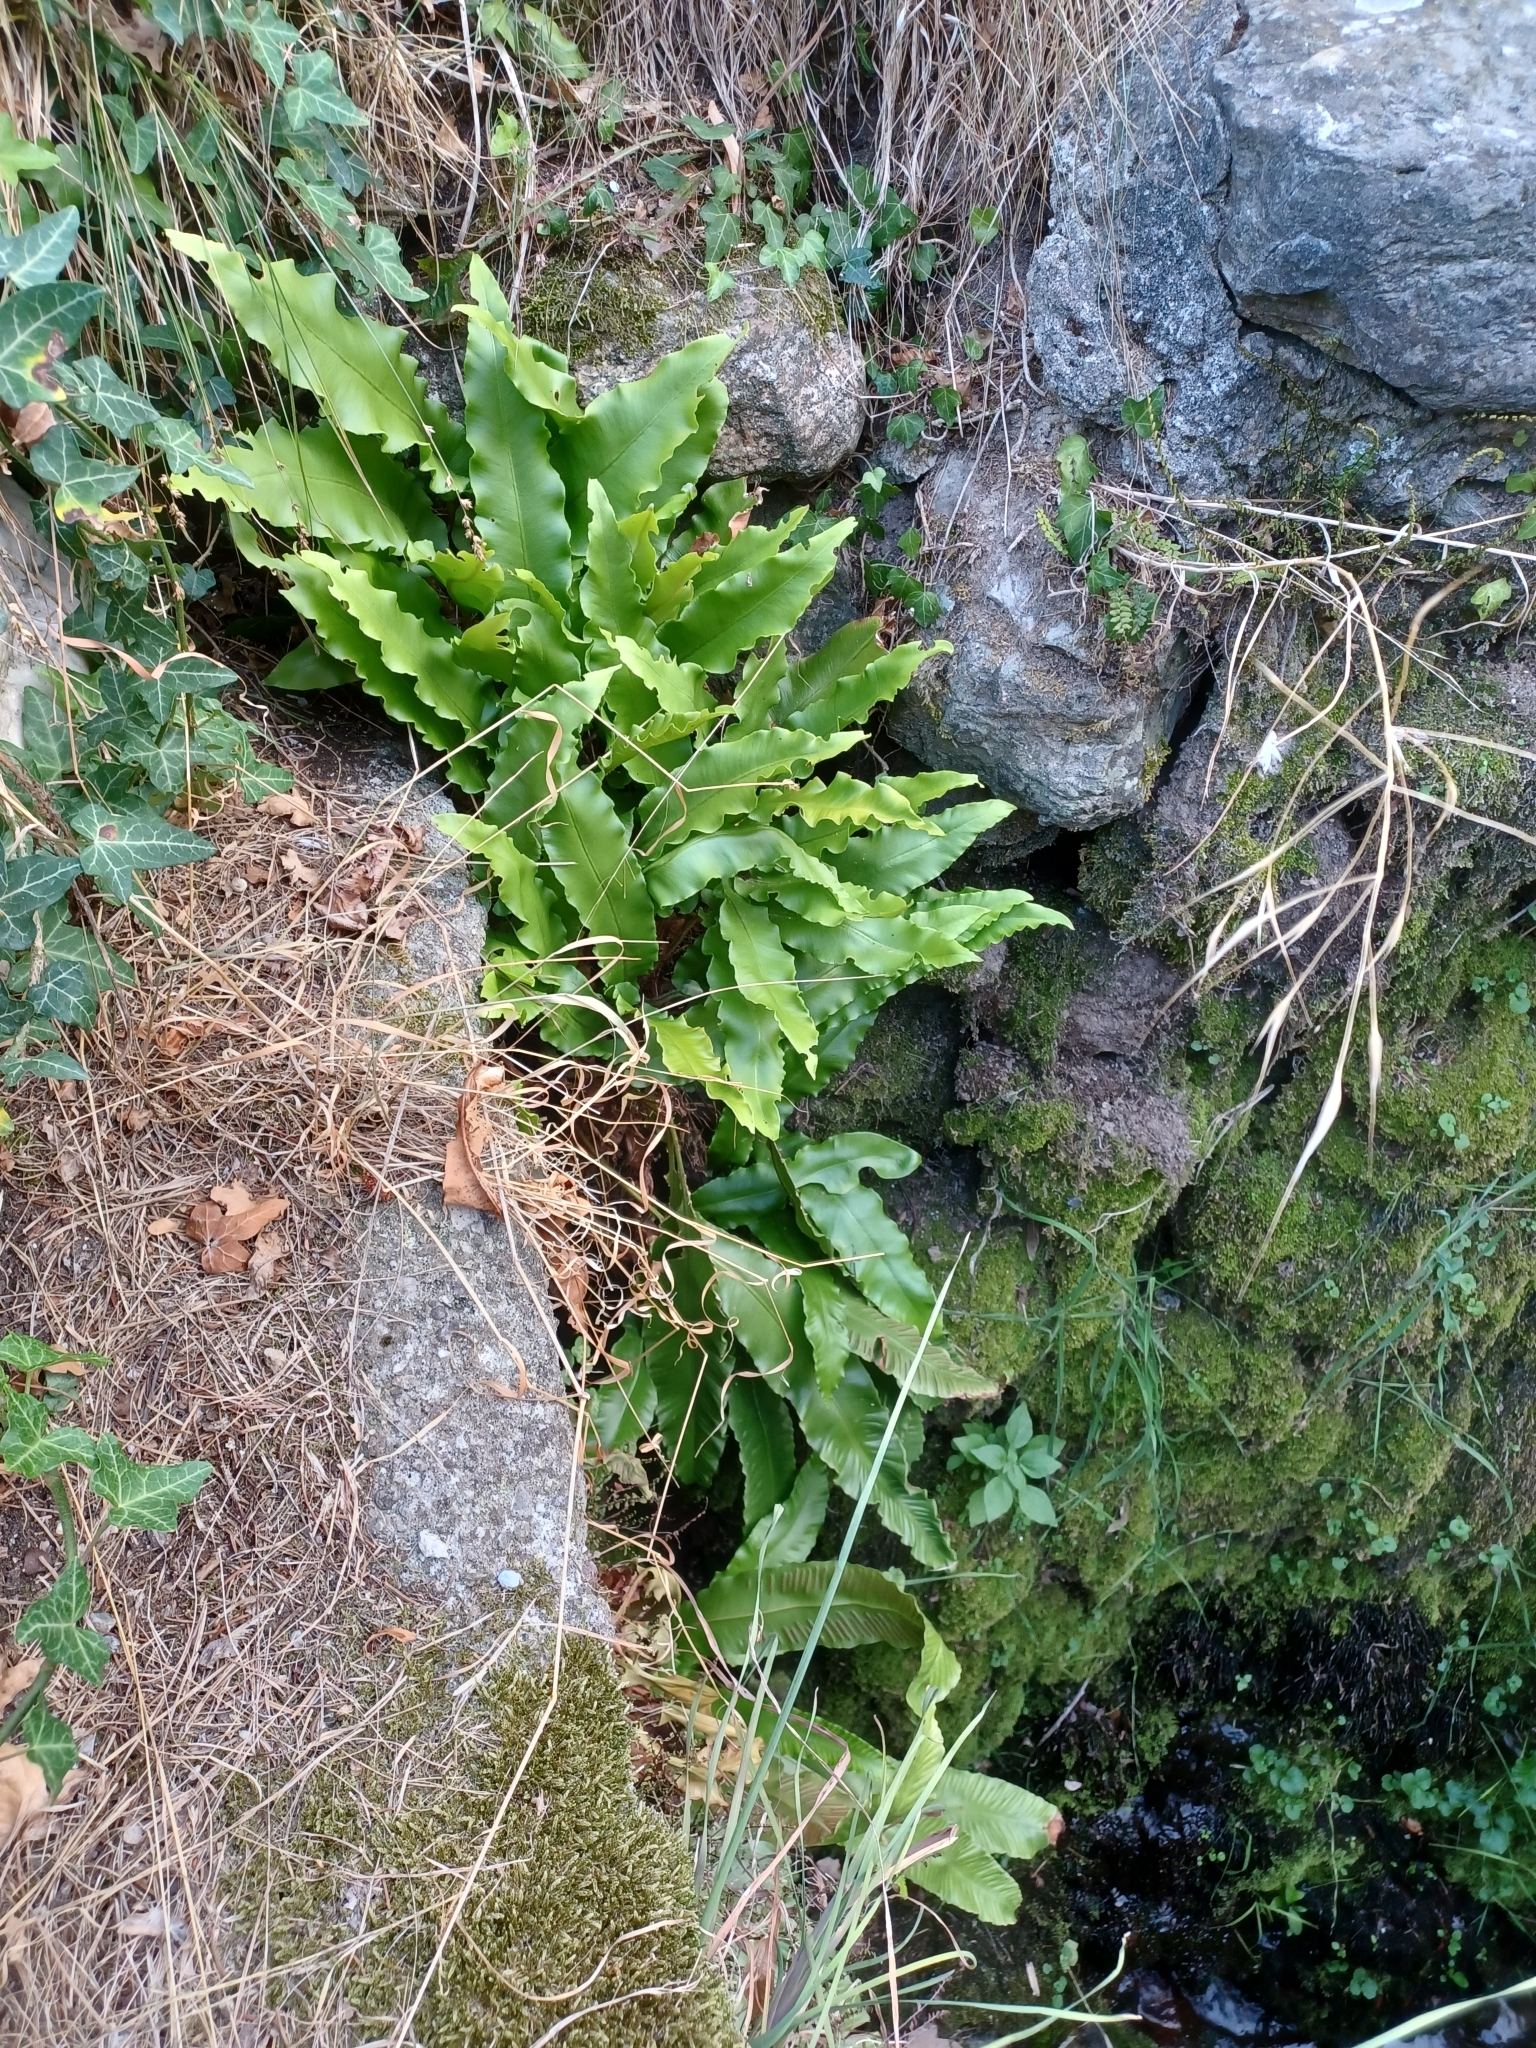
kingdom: Plantae
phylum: Tracheophyta
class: Polypodiopsida
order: Polypodiales
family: Aspleniaceae
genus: Asplenium
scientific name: Asplenium scolopendrium
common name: Hart's-tongue fern
